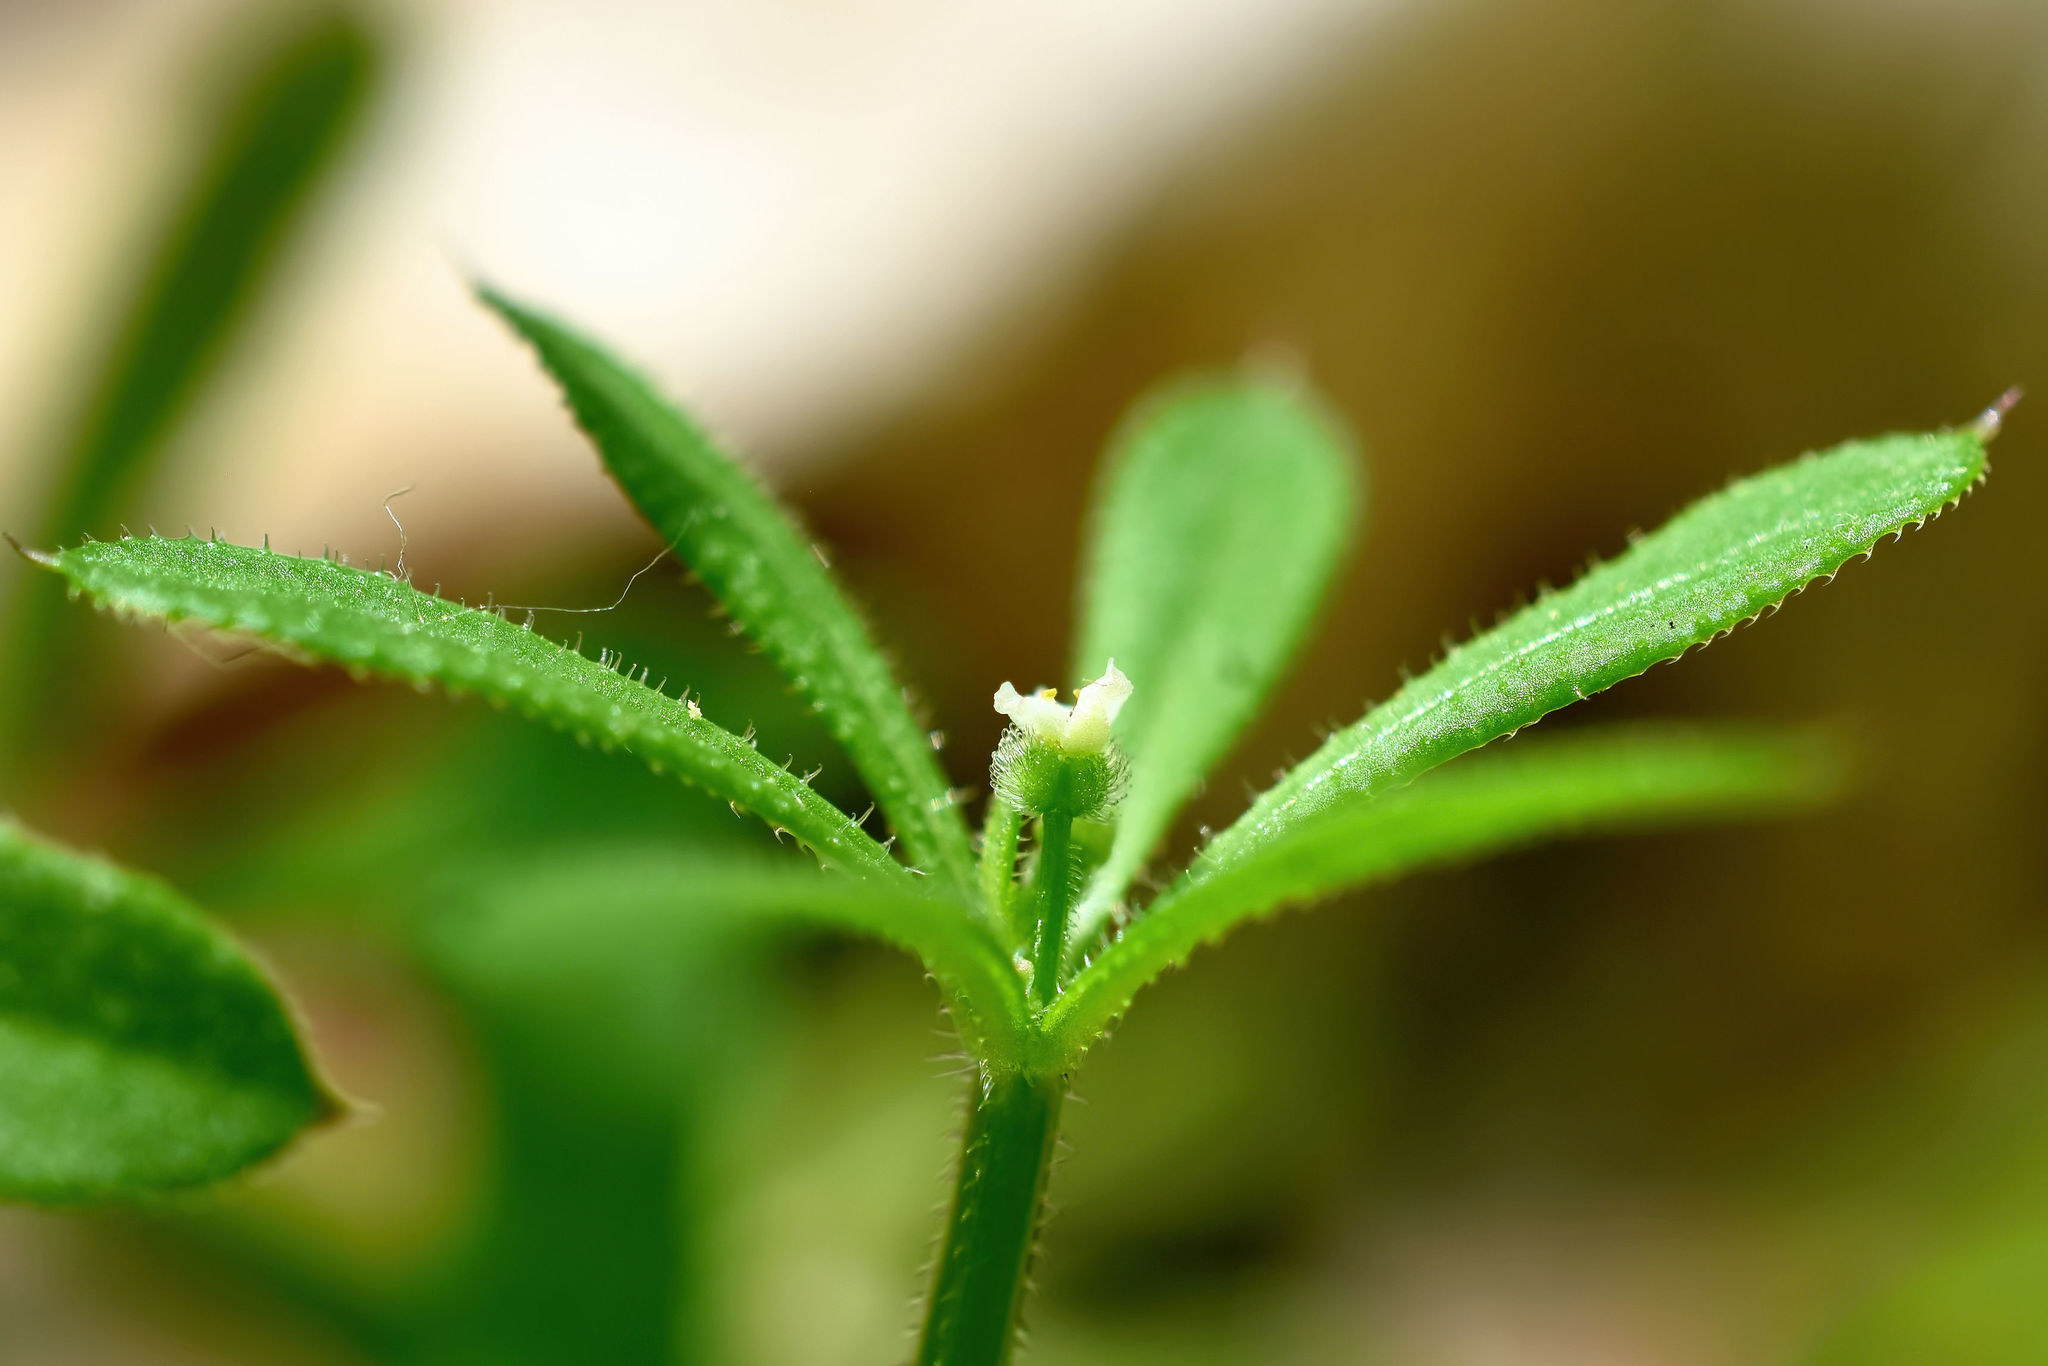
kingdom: Plantae
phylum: Tracheophyta
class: Magnoliopsida
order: Gentianales
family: Rubiaceae
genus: Galium
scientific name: Galium aparine
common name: Cleavers
